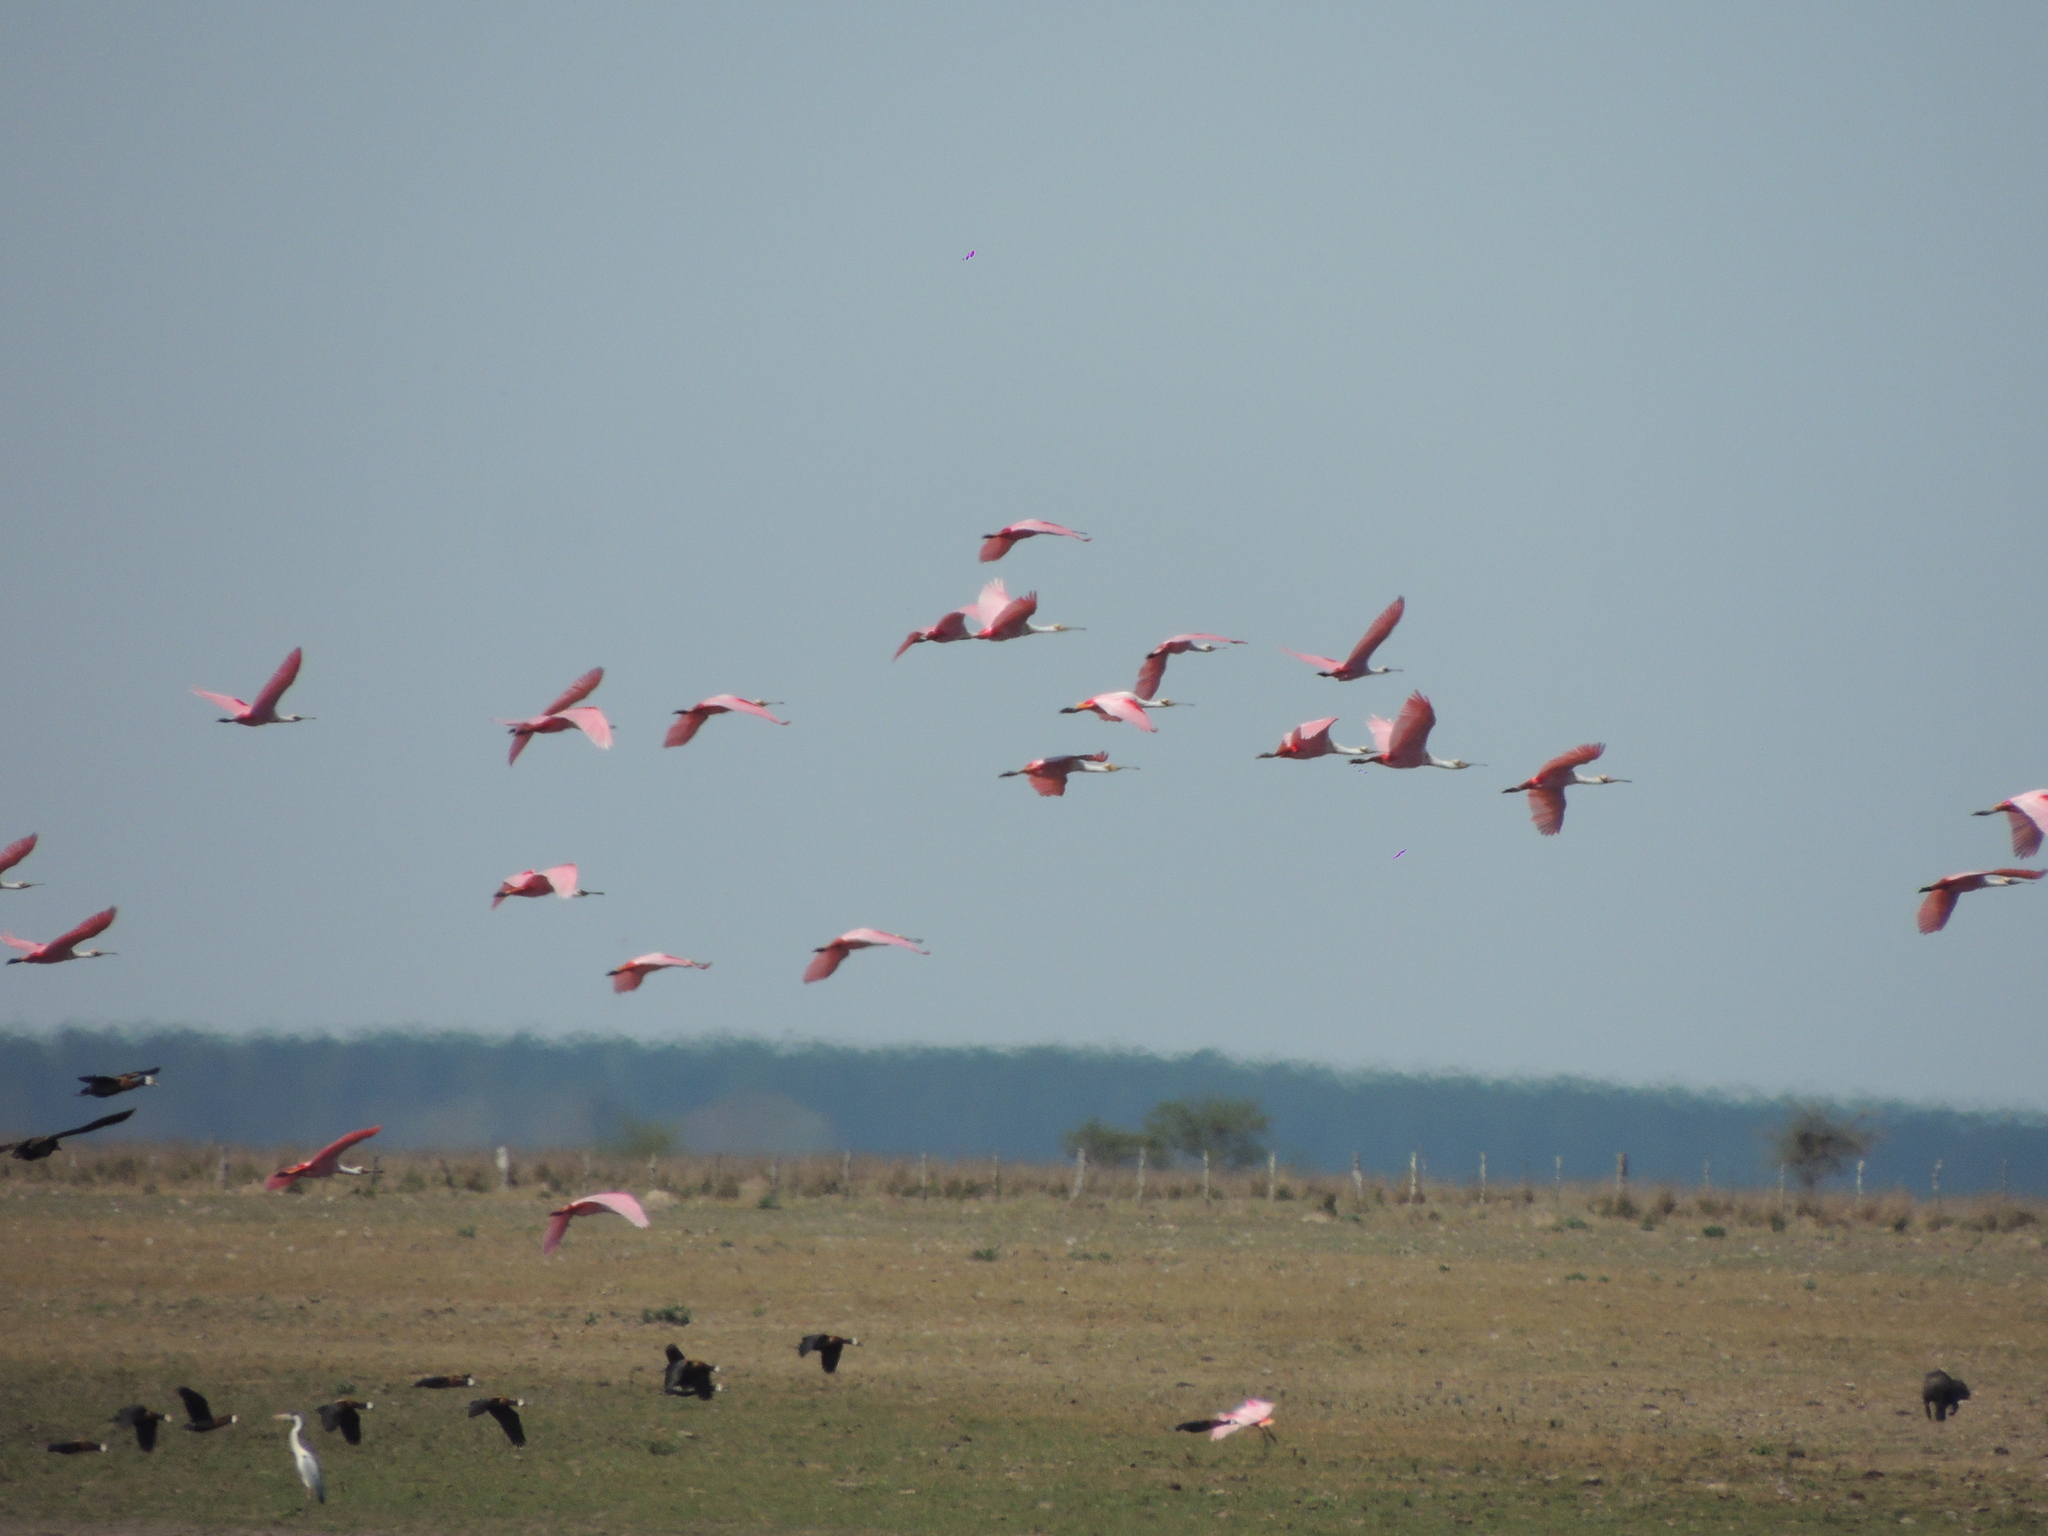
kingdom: Animalia
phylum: Chordata
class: Aves
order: Pelecaniformes
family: Threskiornithidae
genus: Platalea
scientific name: Platalea ajaja
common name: Roseate spoonbill
